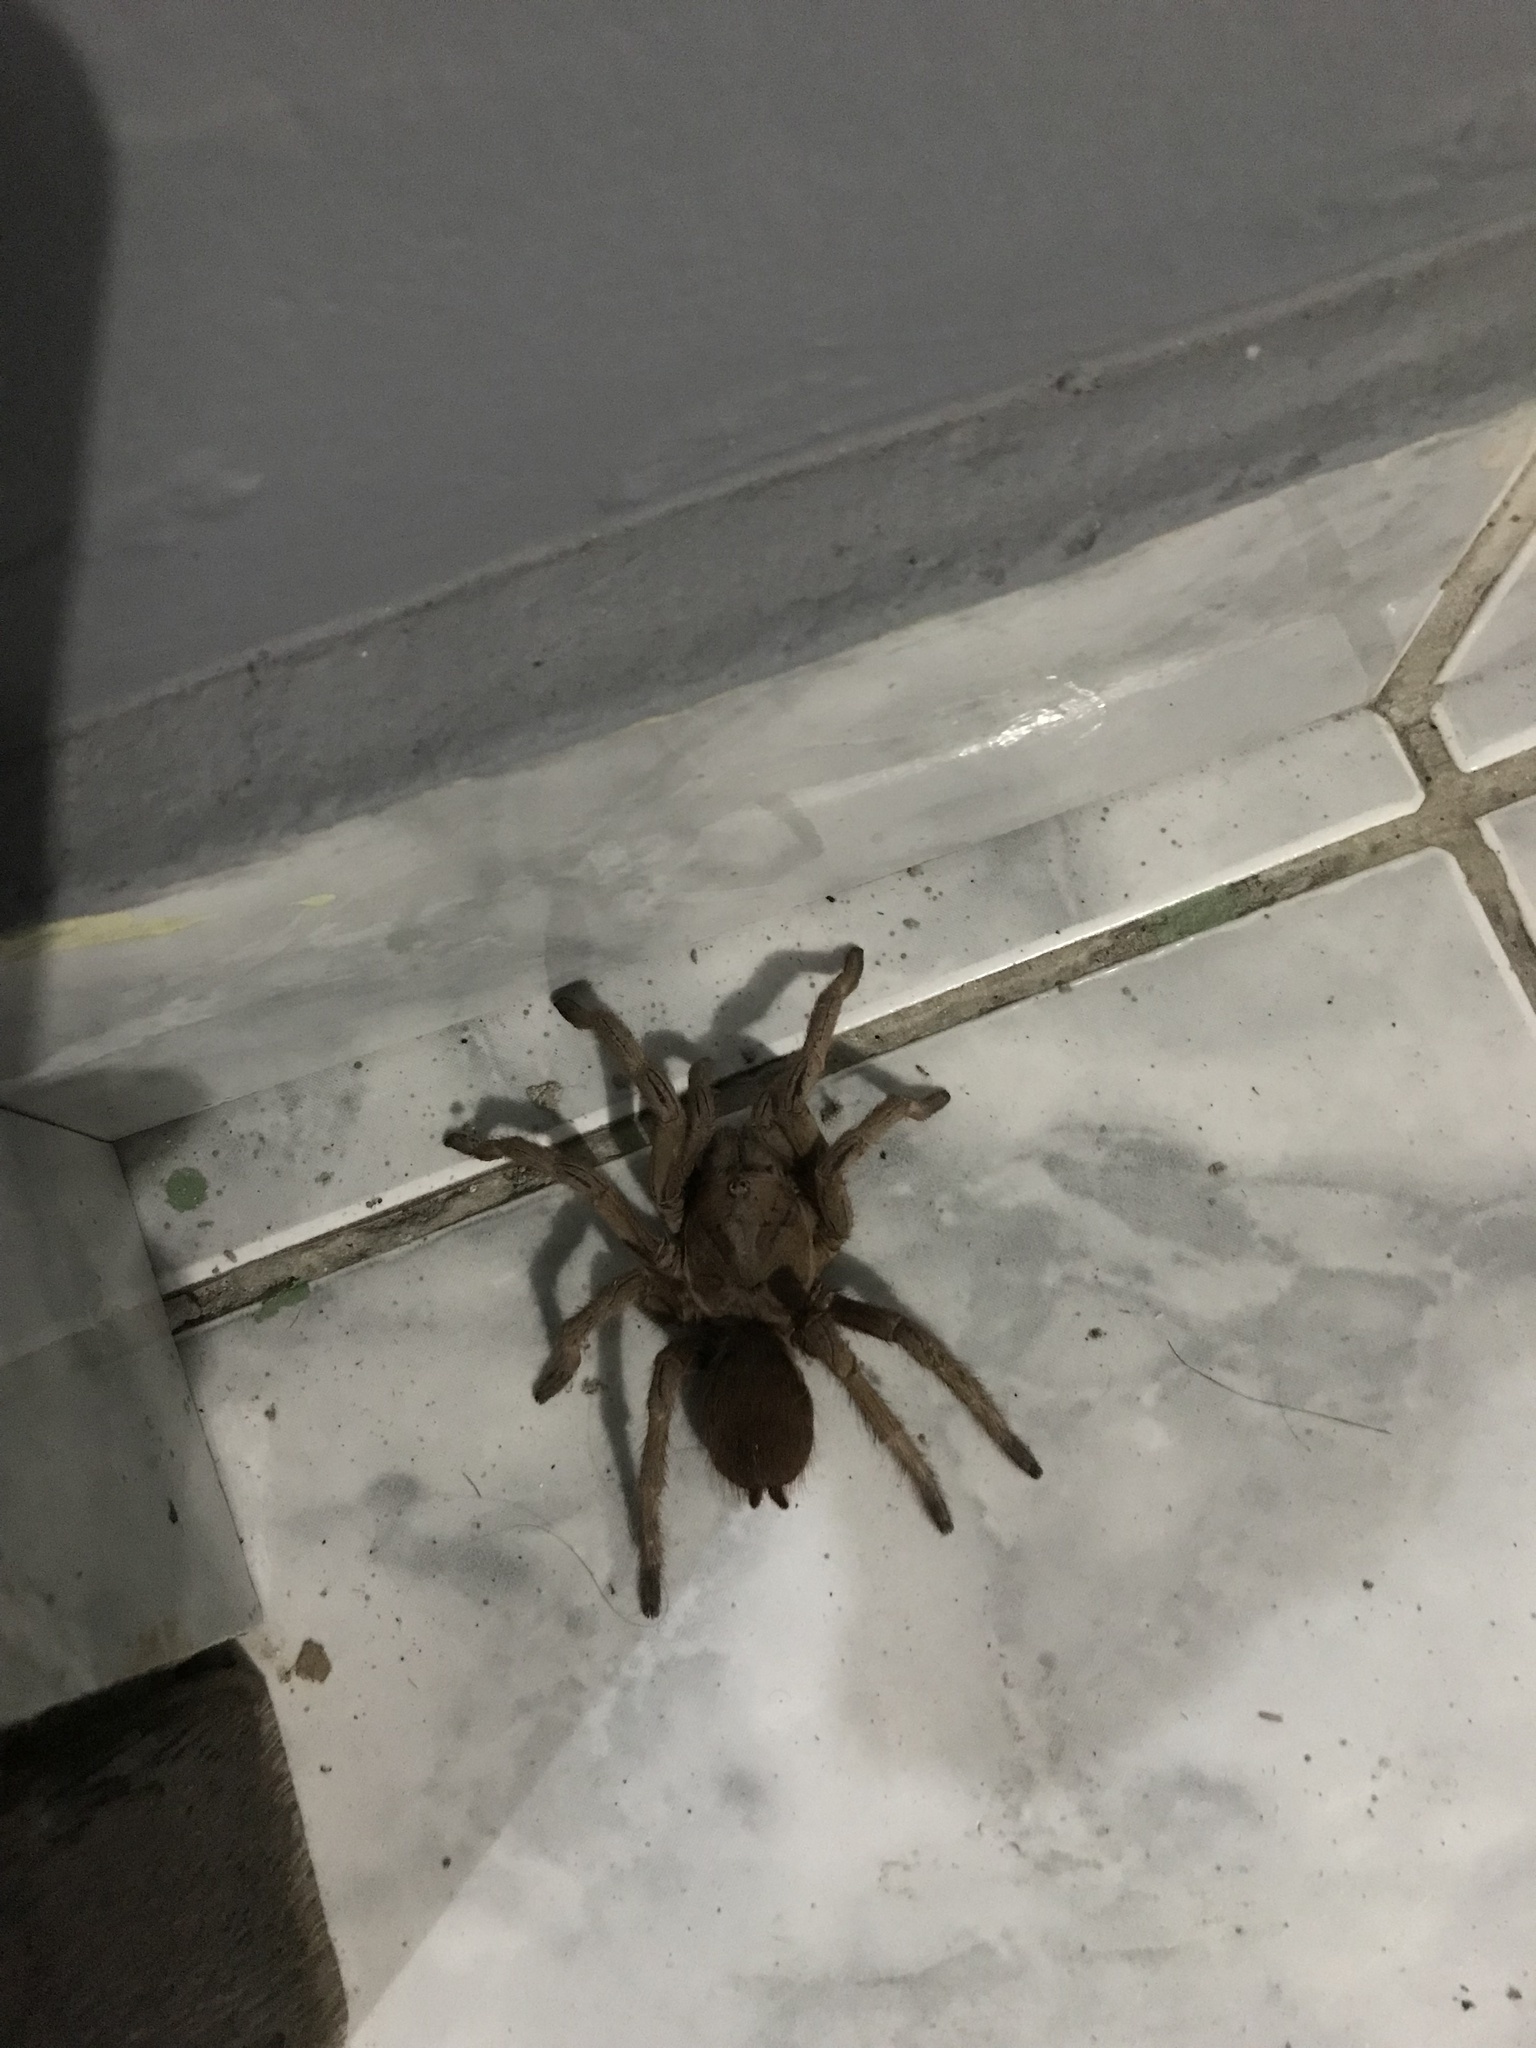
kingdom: Animalia
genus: Crypsidromus
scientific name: Crypsidromus
